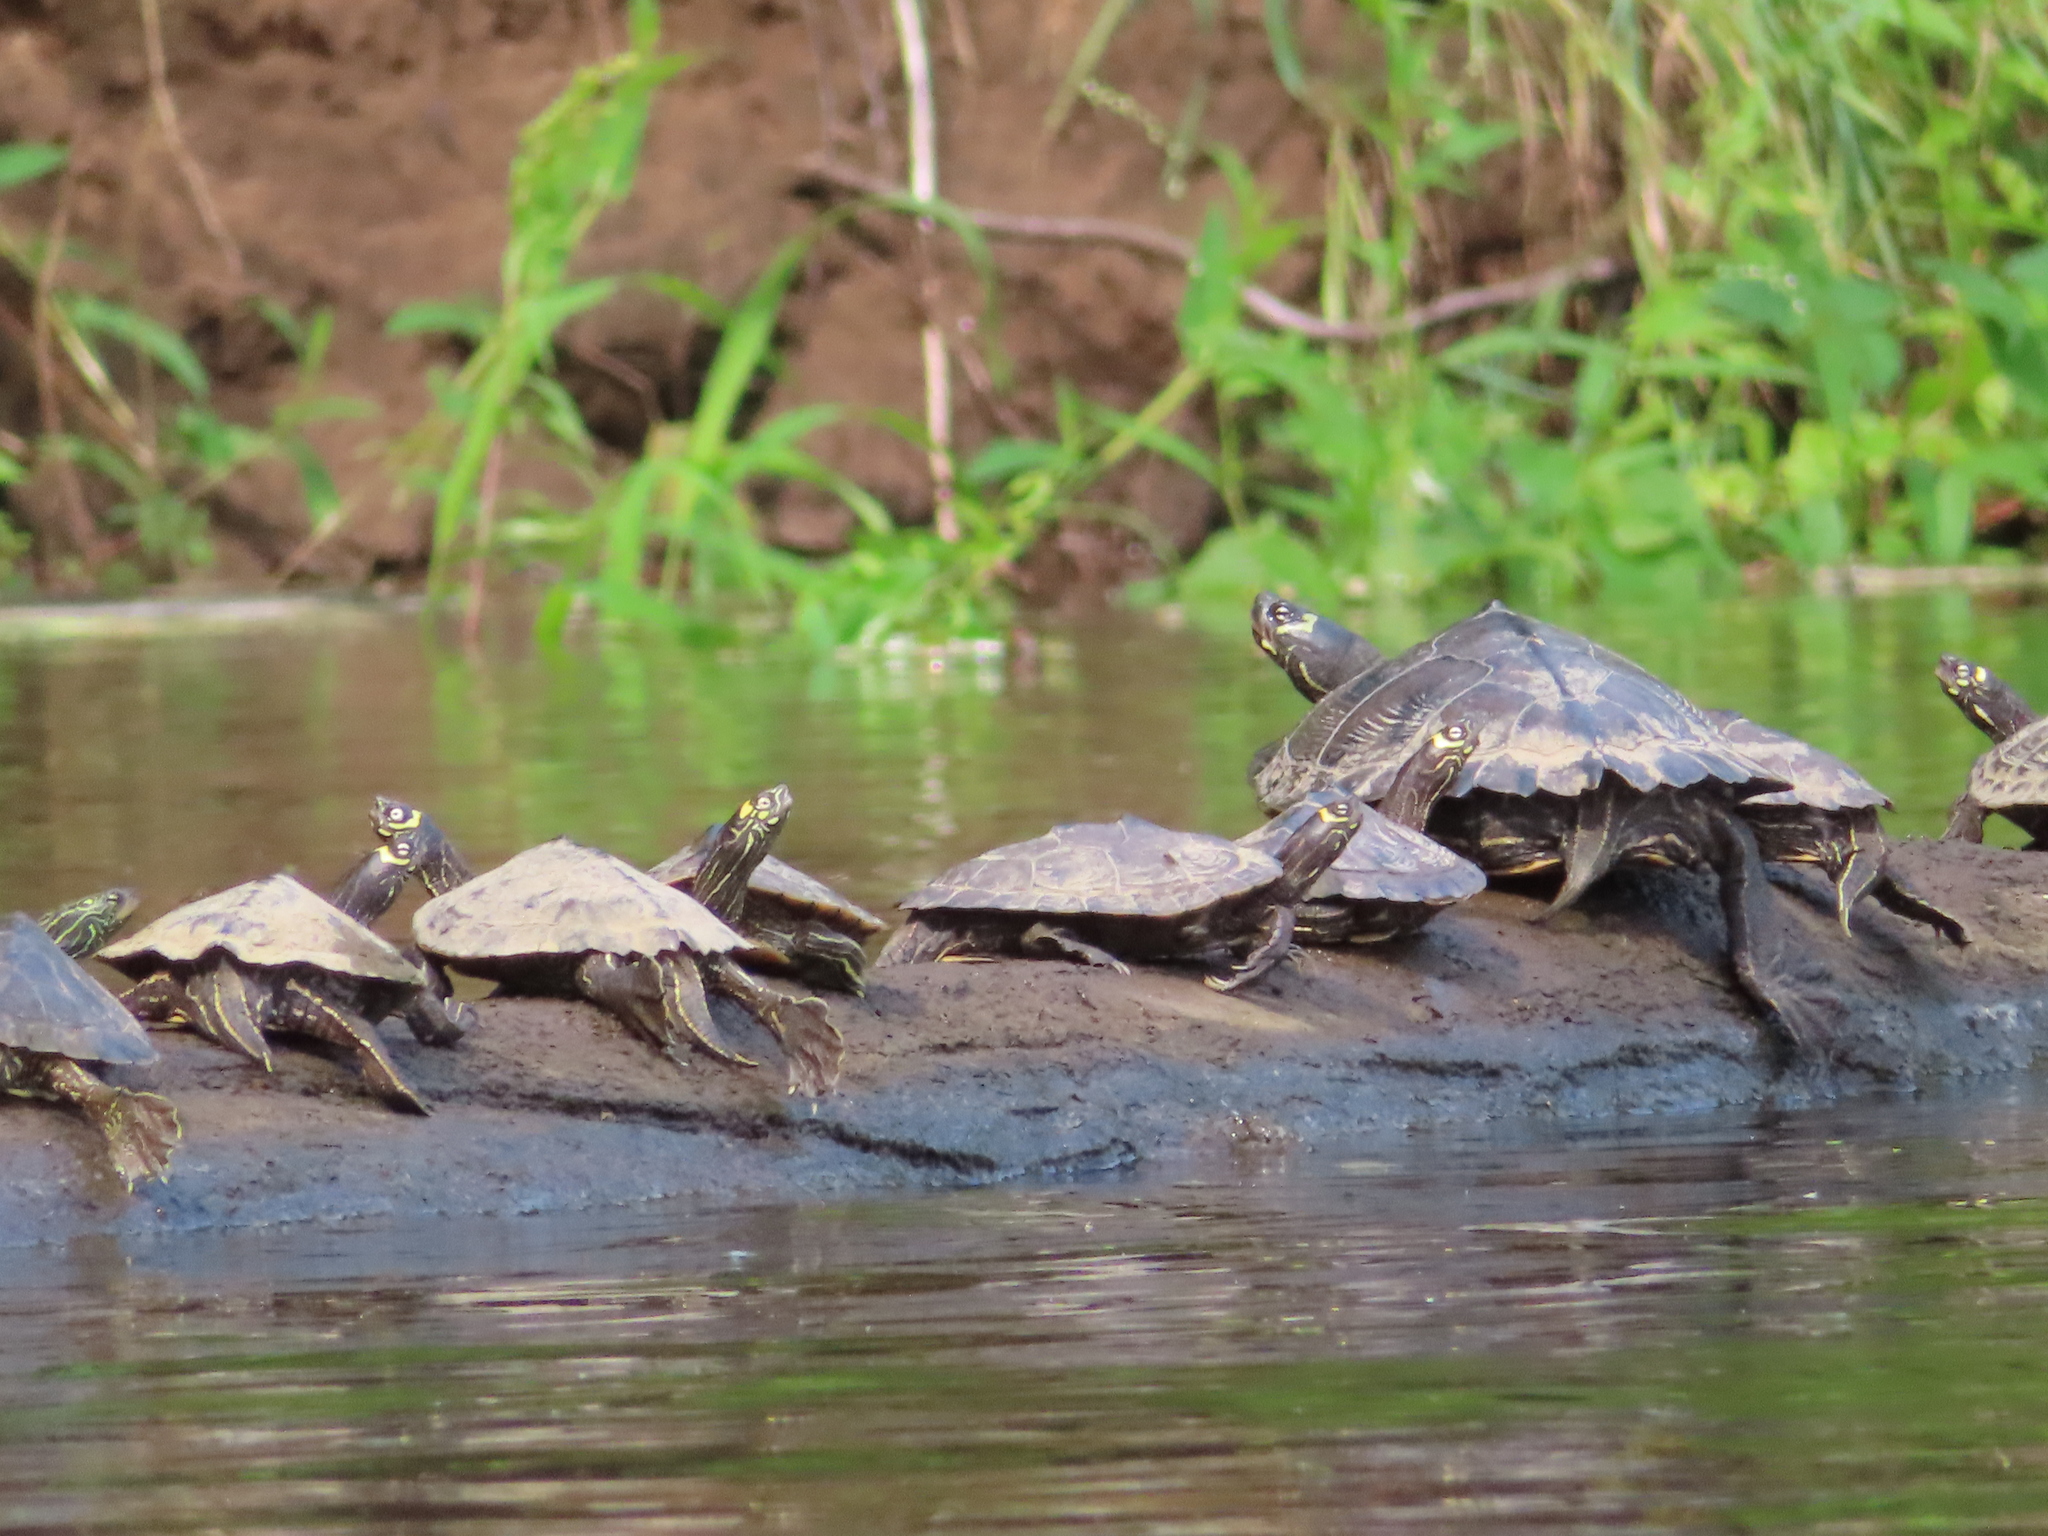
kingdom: Animalia
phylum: Chordata
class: Testudines
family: Emydidae
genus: Graptemys
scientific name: Graptemys geographica
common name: Common map turtle
